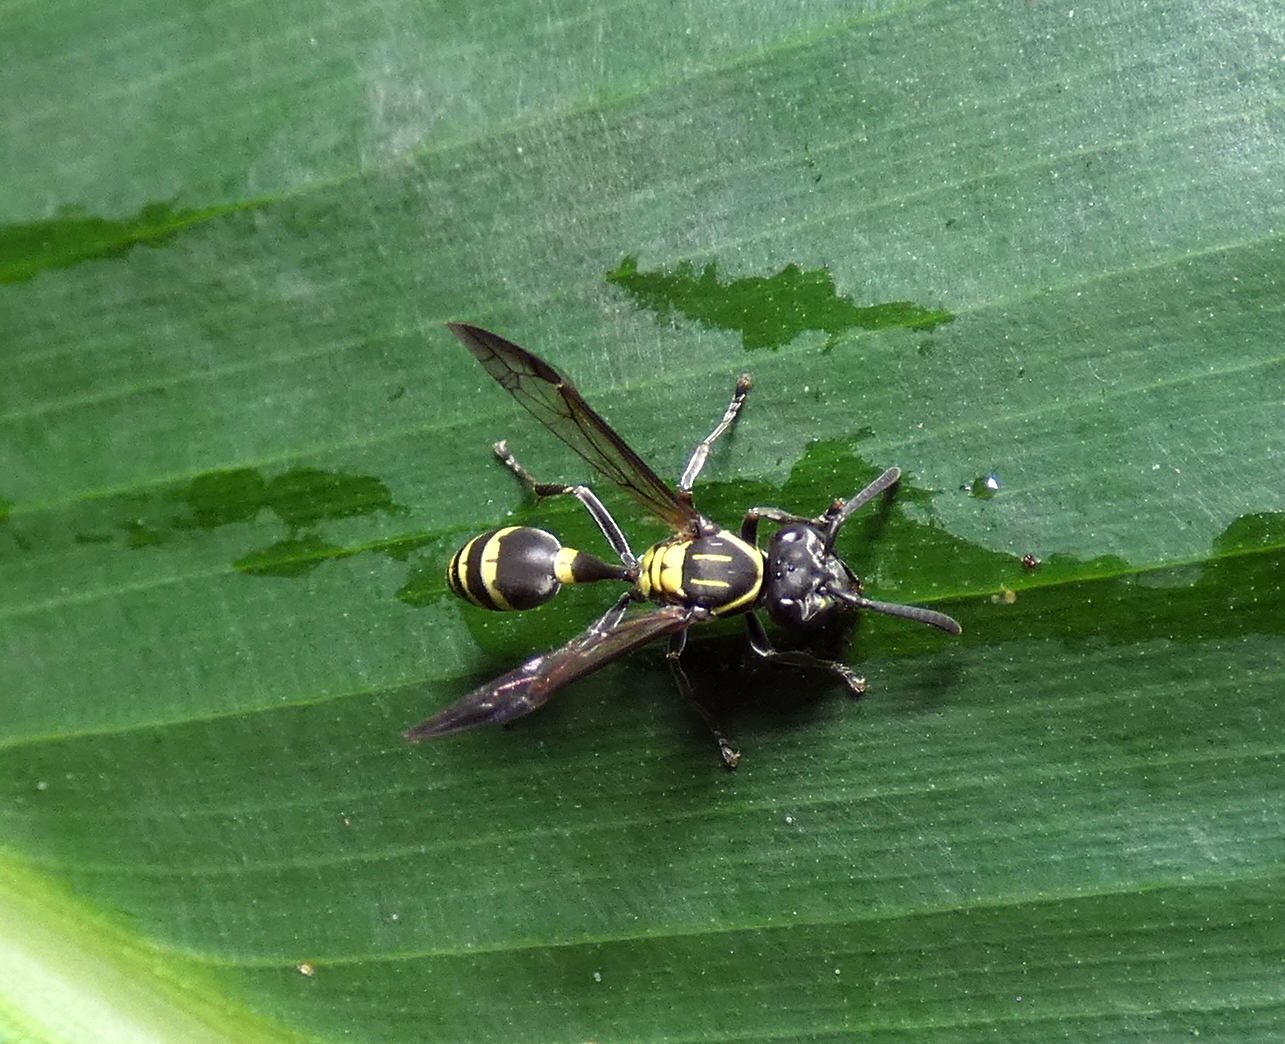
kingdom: Animalia
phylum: Arthropoda
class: Insecta
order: Hymenoptera
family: Eumenidae
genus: Polybia
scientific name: Polybia occidentalis
